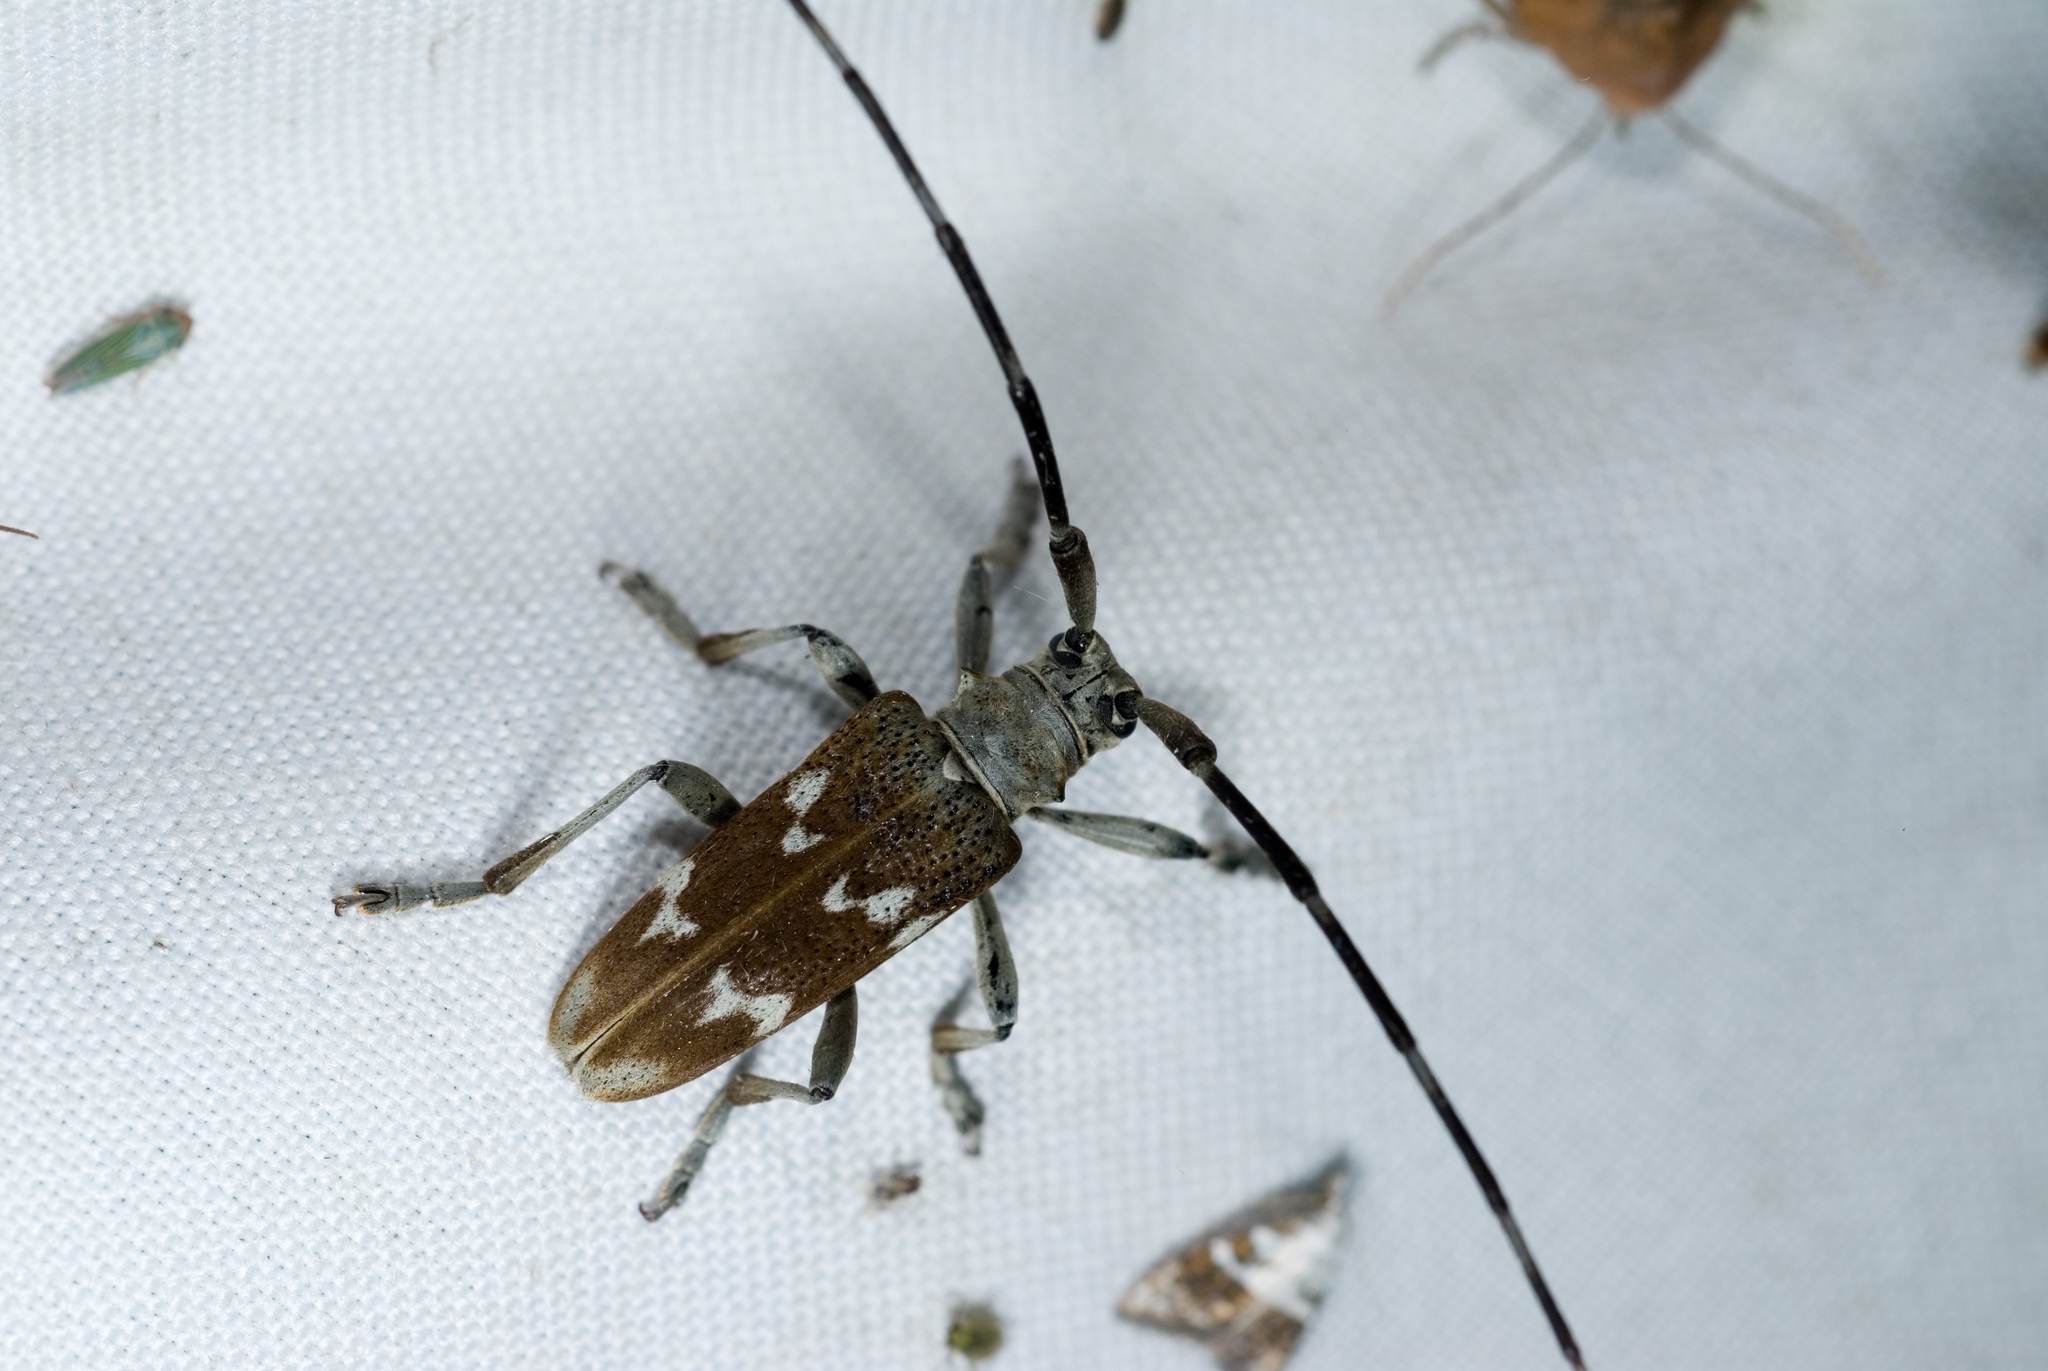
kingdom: Animalia
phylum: Arthropoda
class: Insecta
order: Coleoptera
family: Cerambycidae
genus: Peblephaeus
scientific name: Peblephaeus ziczac
